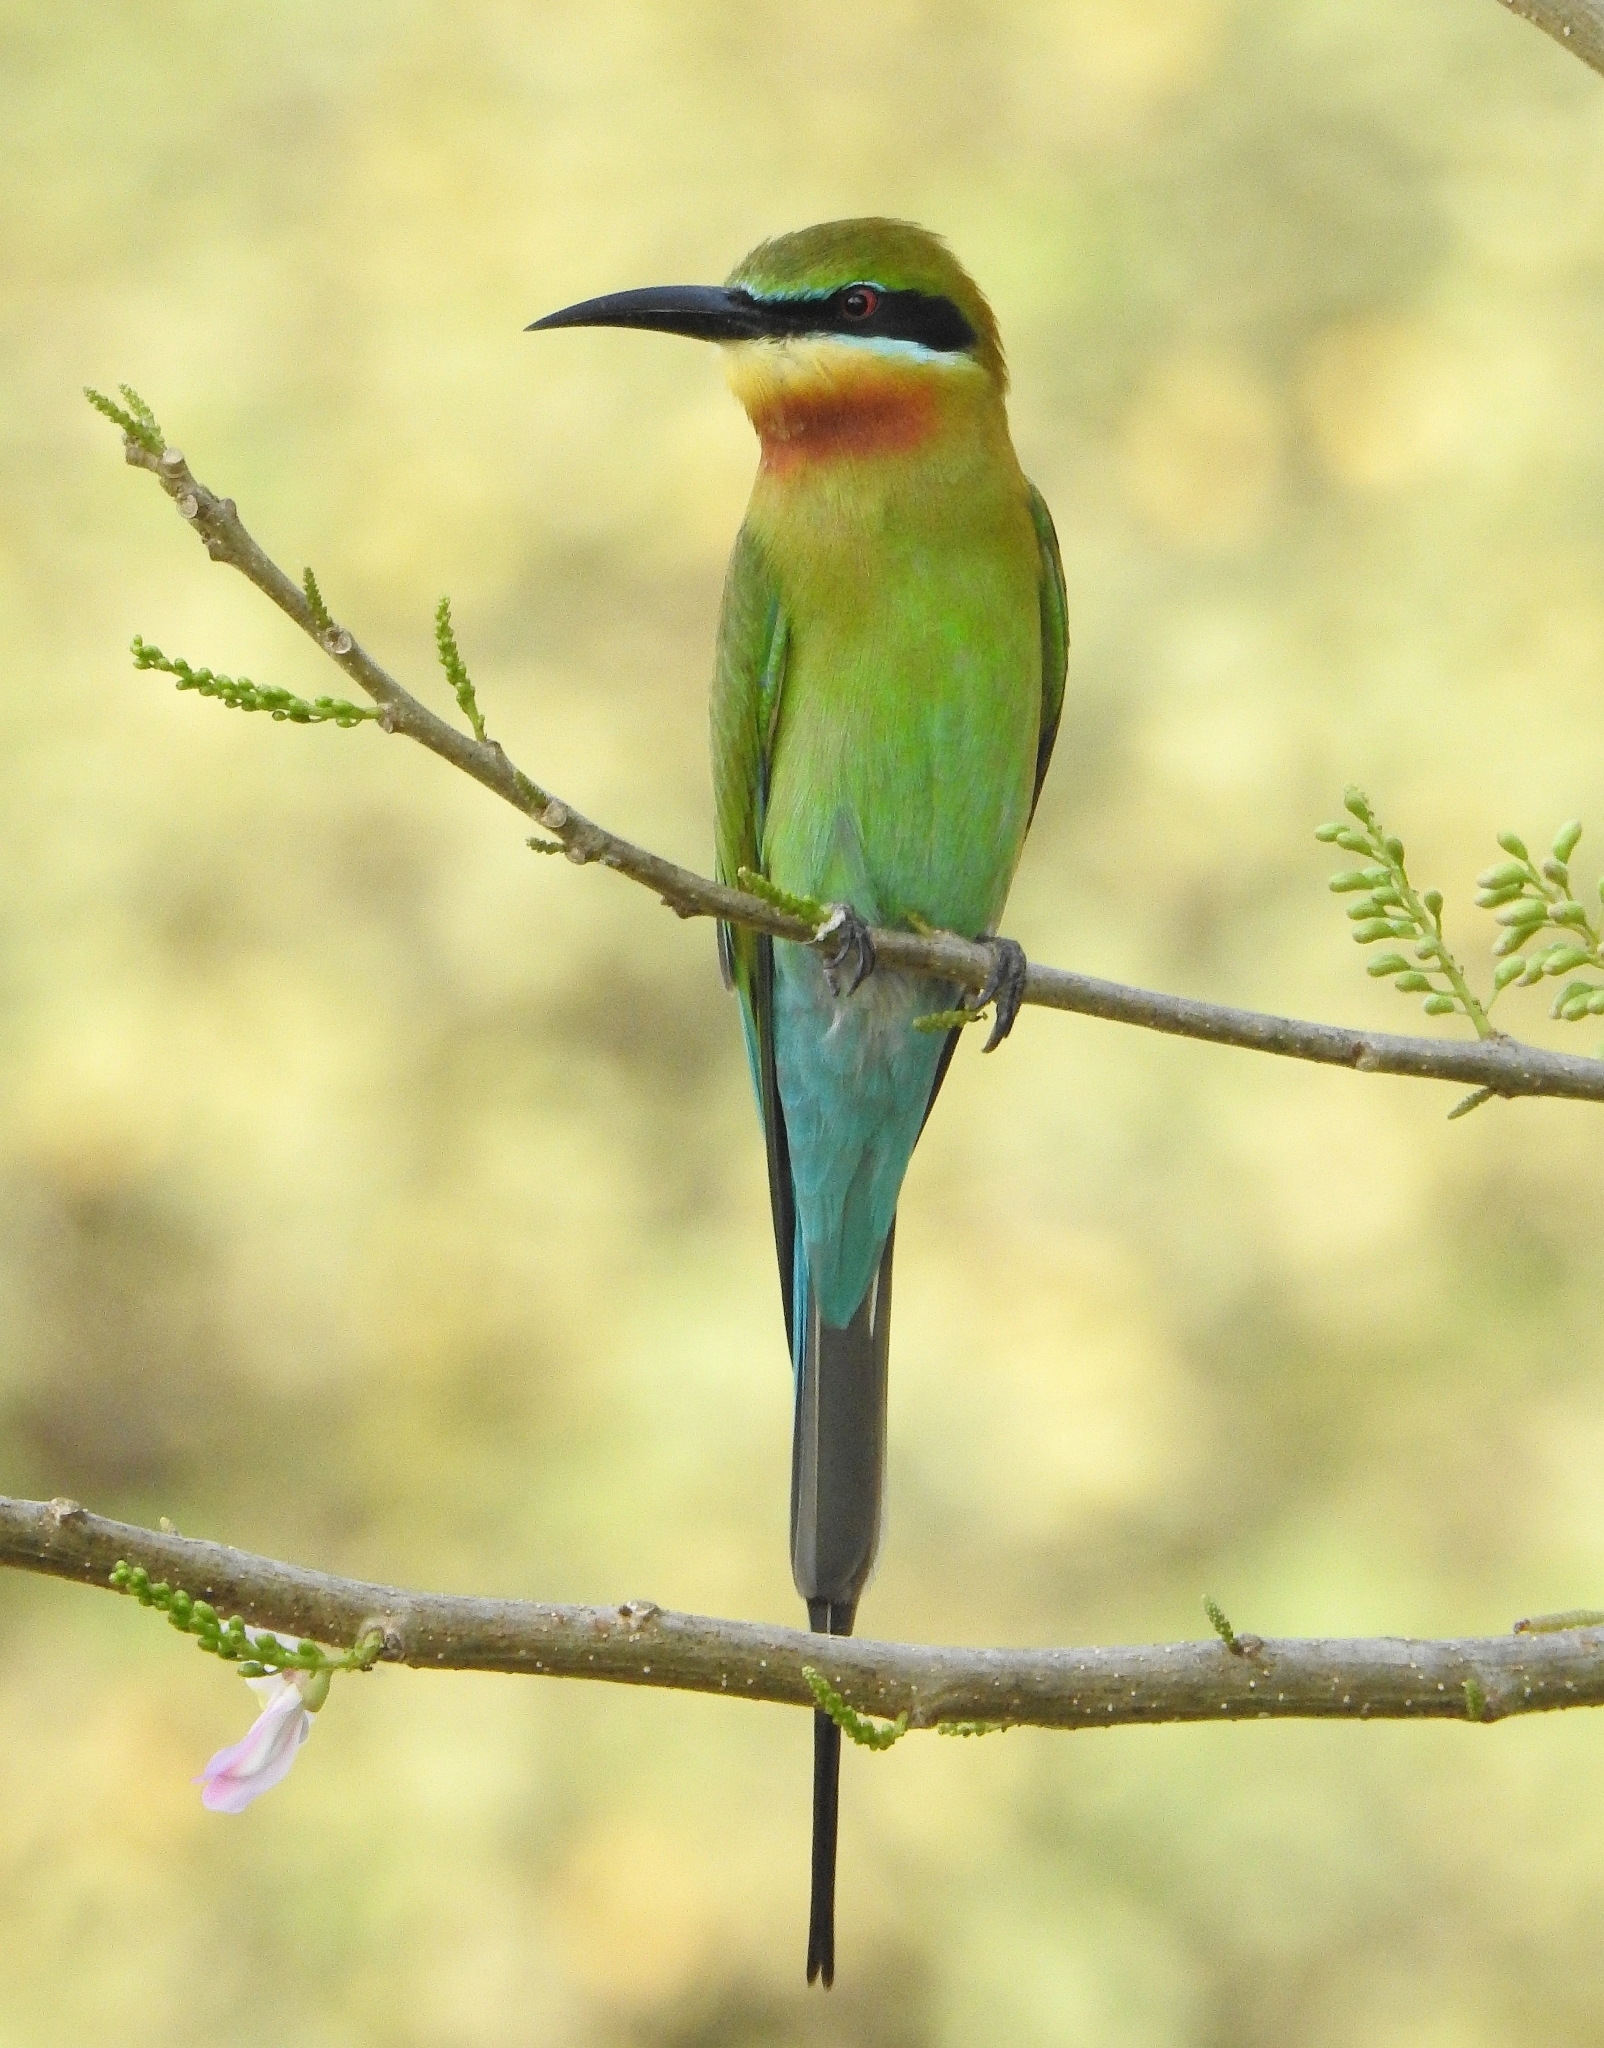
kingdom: Animalia
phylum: Chordata
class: Aves
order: Coraciiformes
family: Meropidae
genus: Merops
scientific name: Merops philippinus
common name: Blue-tailed bee-eater
